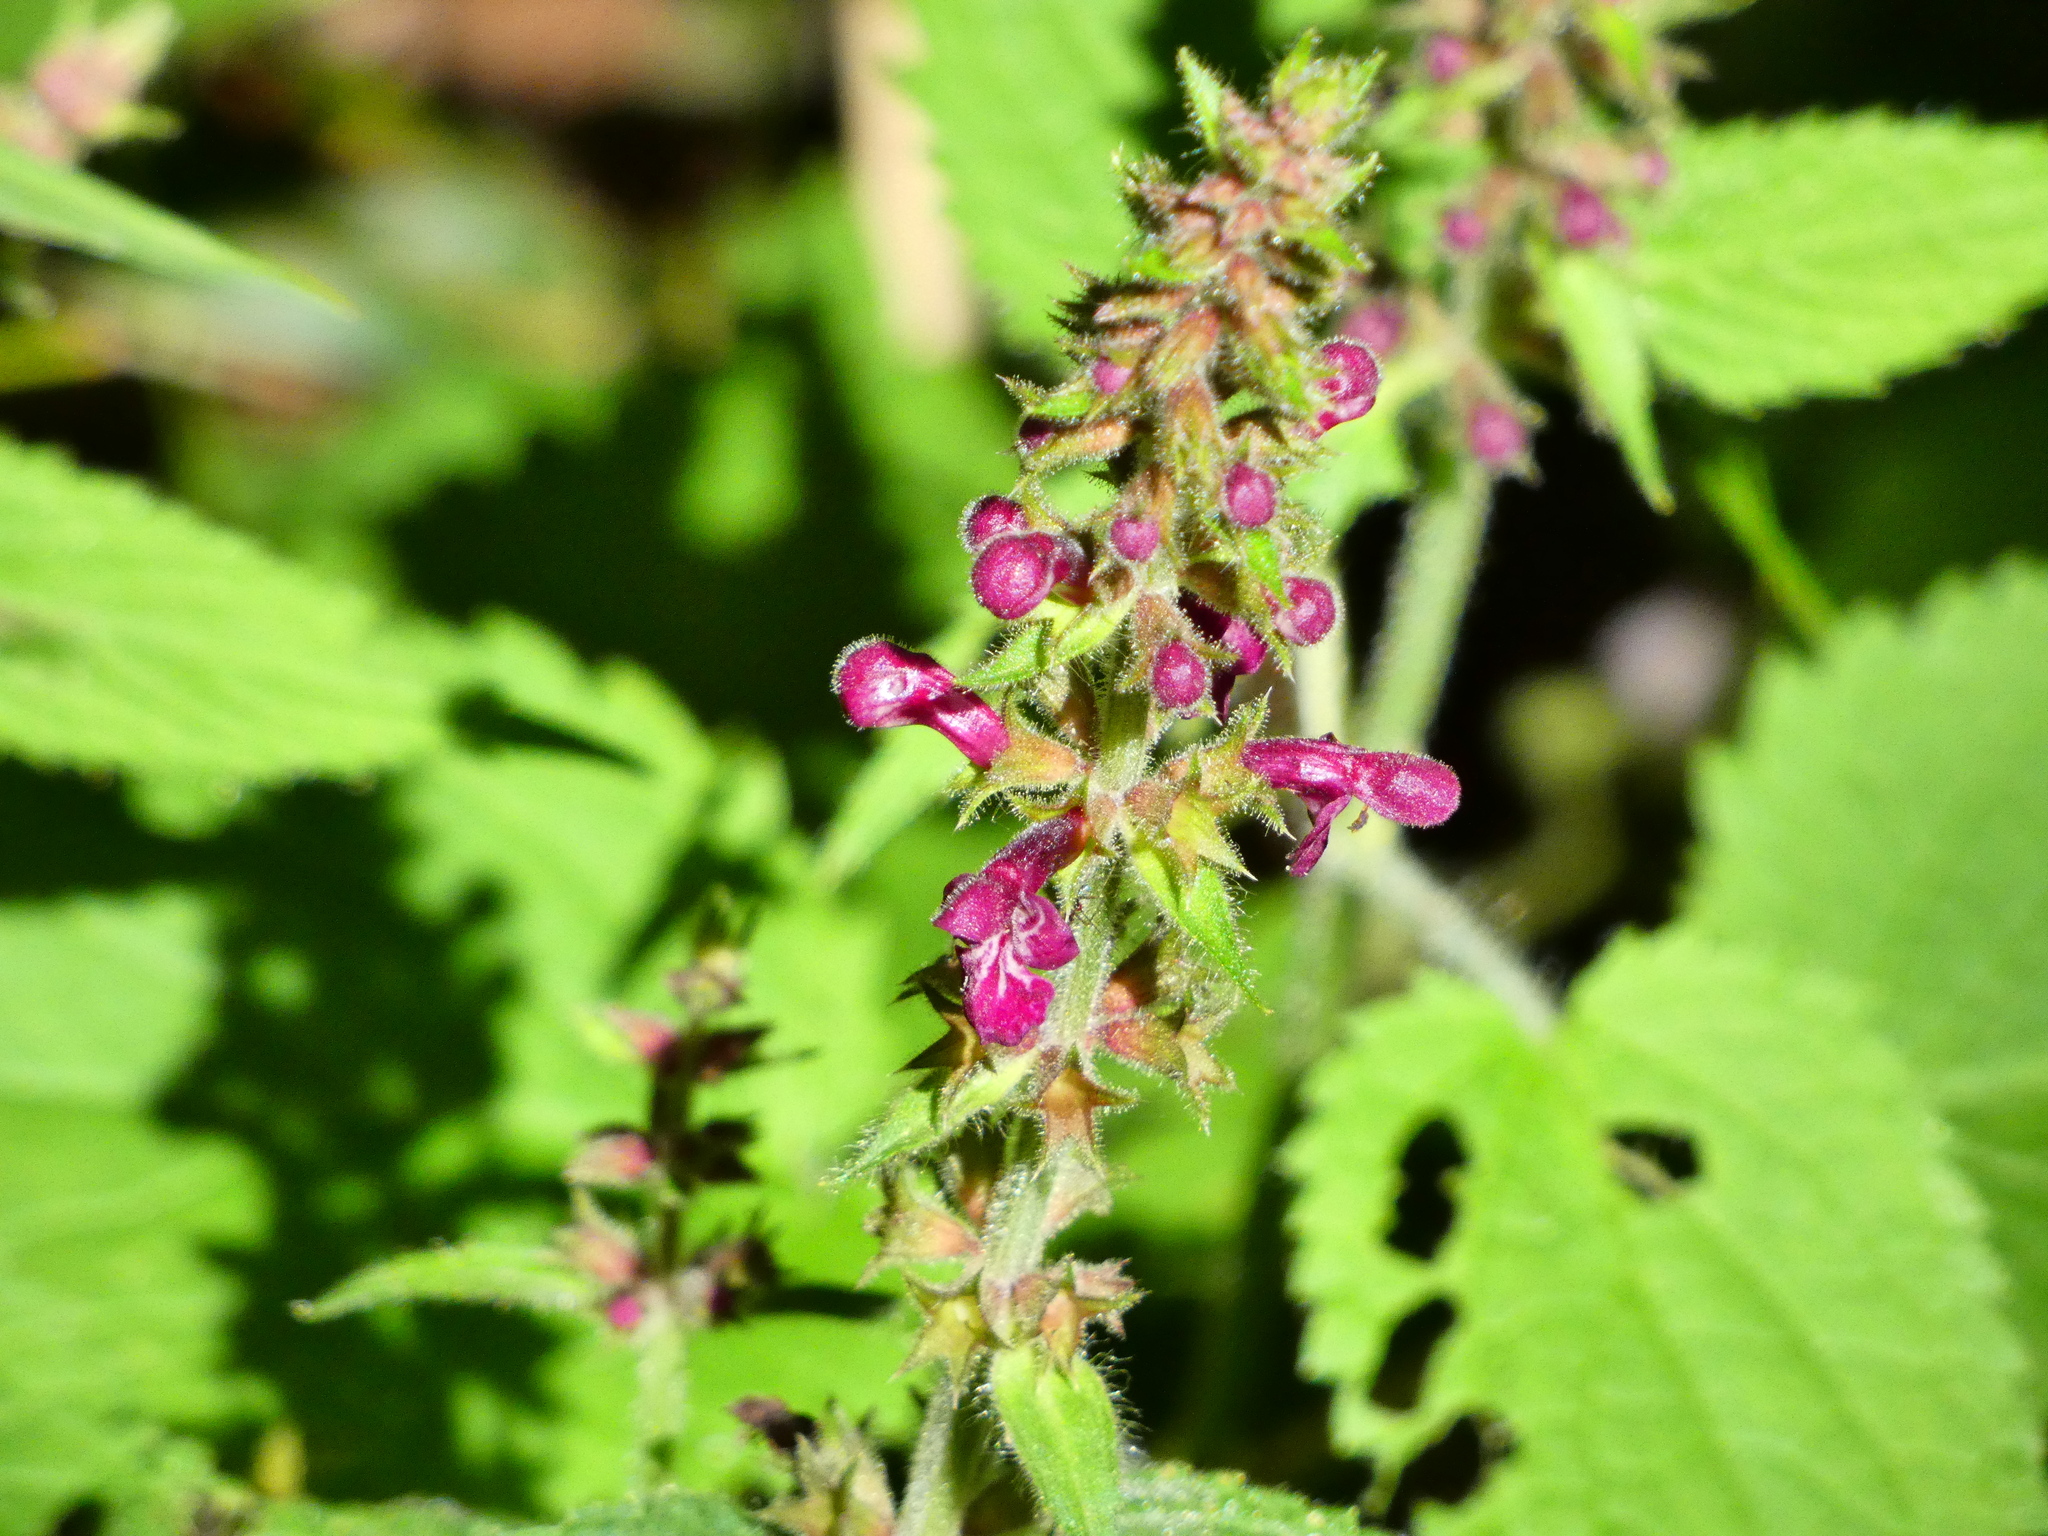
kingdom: Plantae
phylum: Tracheophyta
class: Magnoliopsida
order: Lamiales
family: Lamiaceae
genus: Stachys
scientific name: Stachys sylvatica
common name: Hedge woundwort
